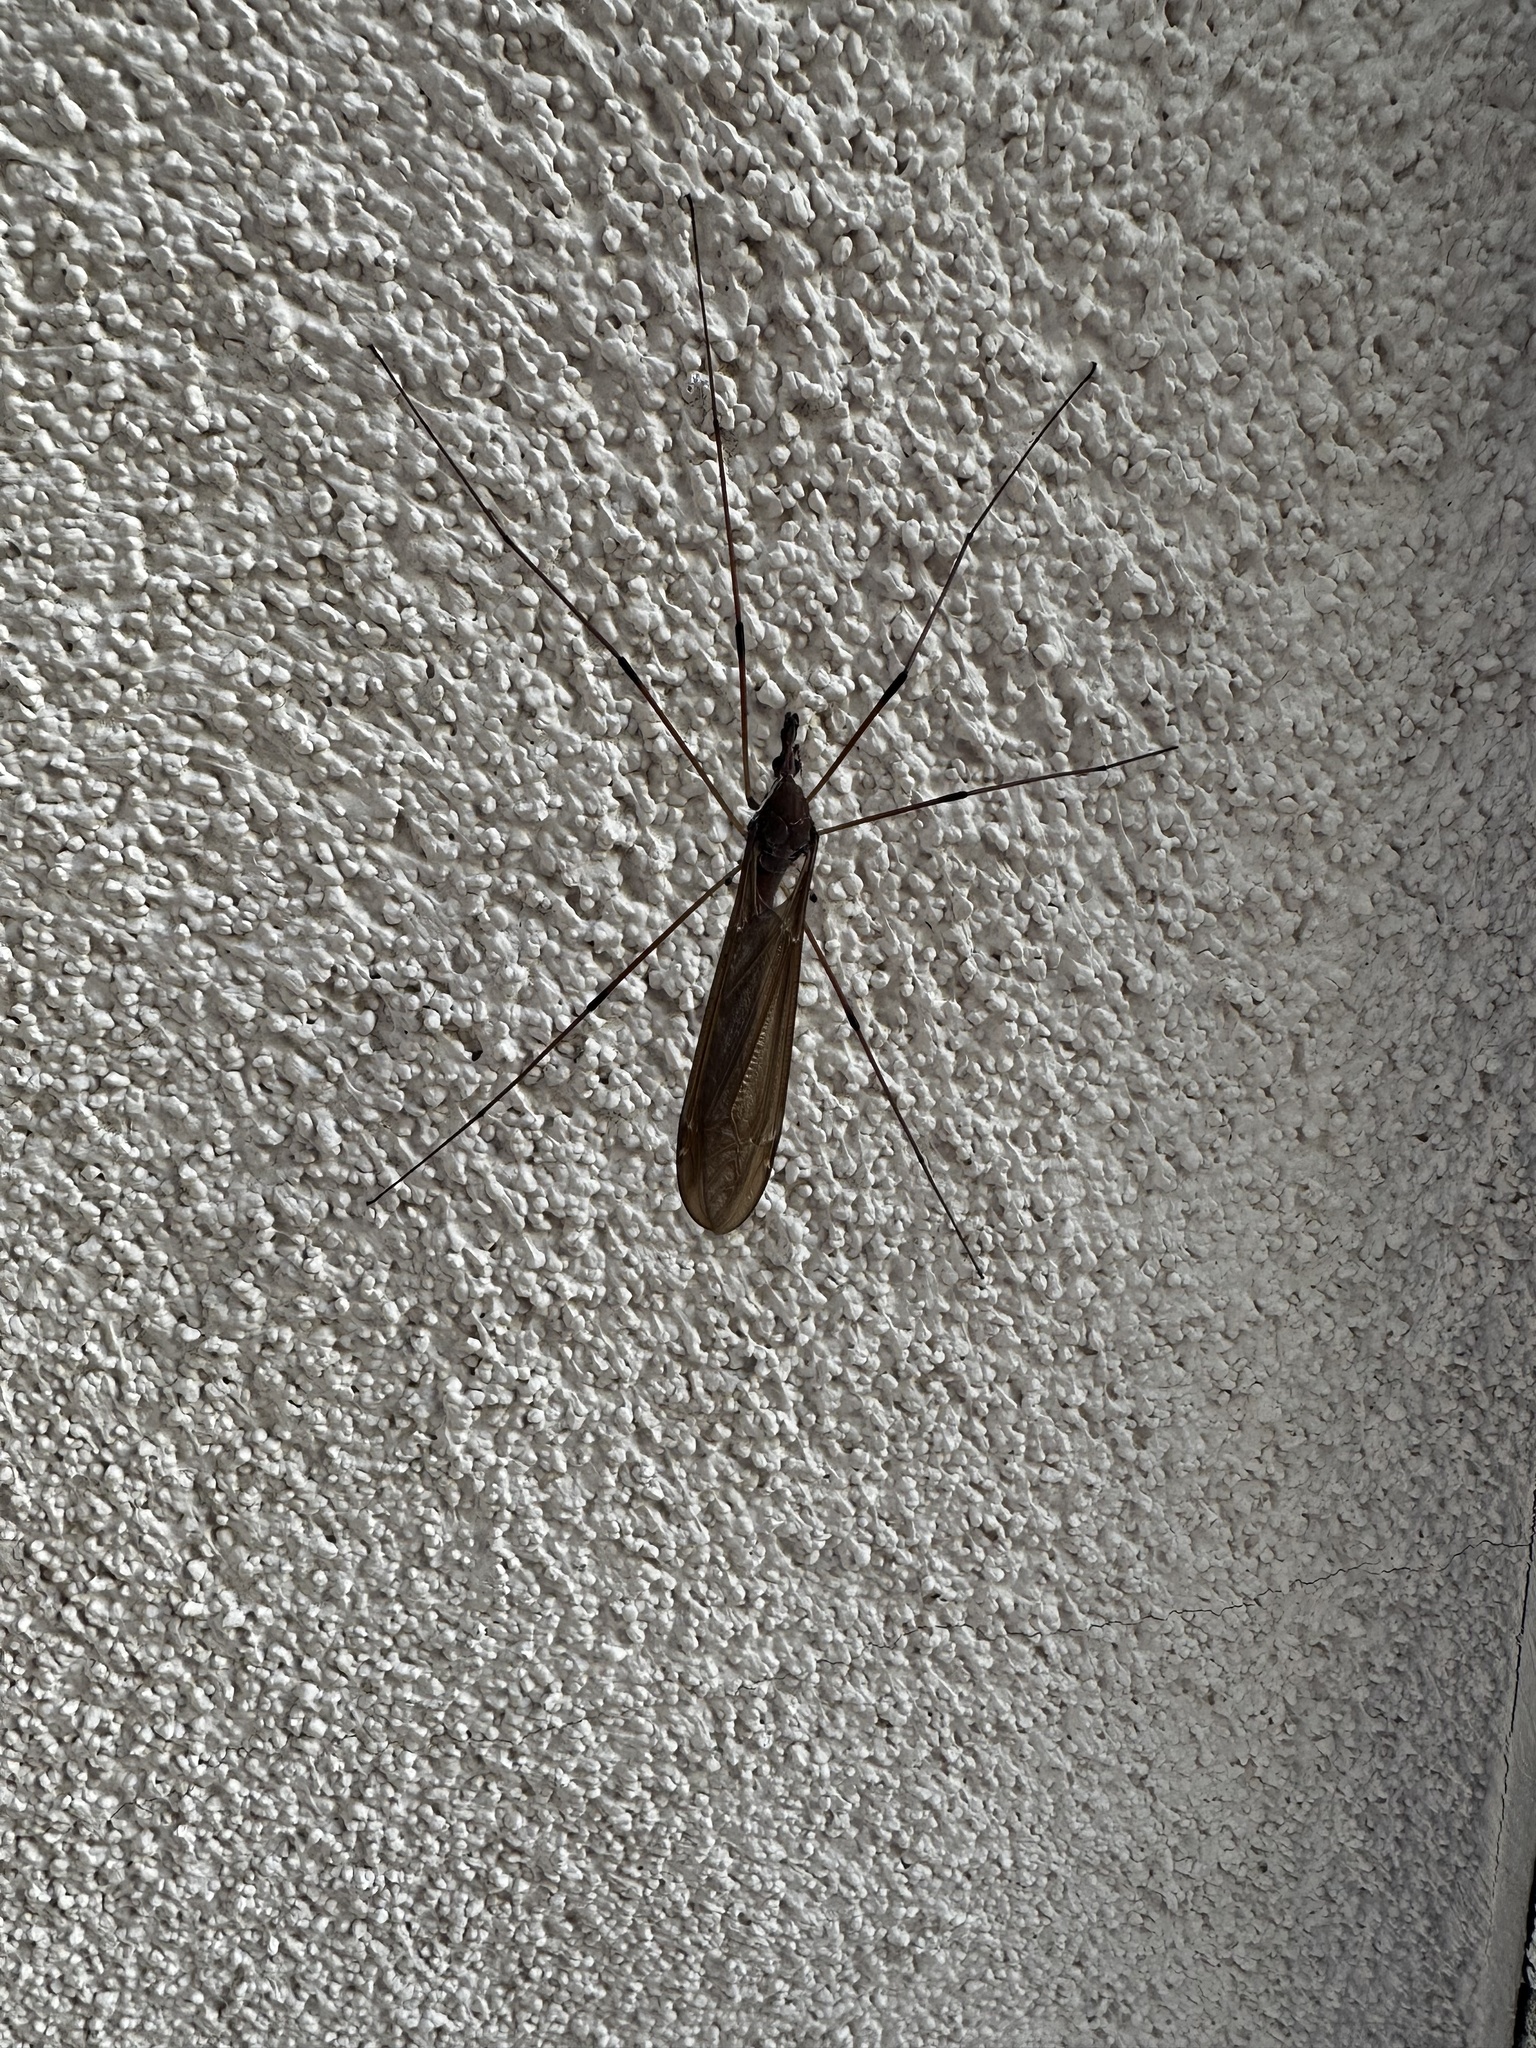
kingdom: Animalia
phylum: Arthropoda
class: Insecta
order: Diptera
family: Tipulidae
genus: Holorusia
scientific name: Holorusia hespera
